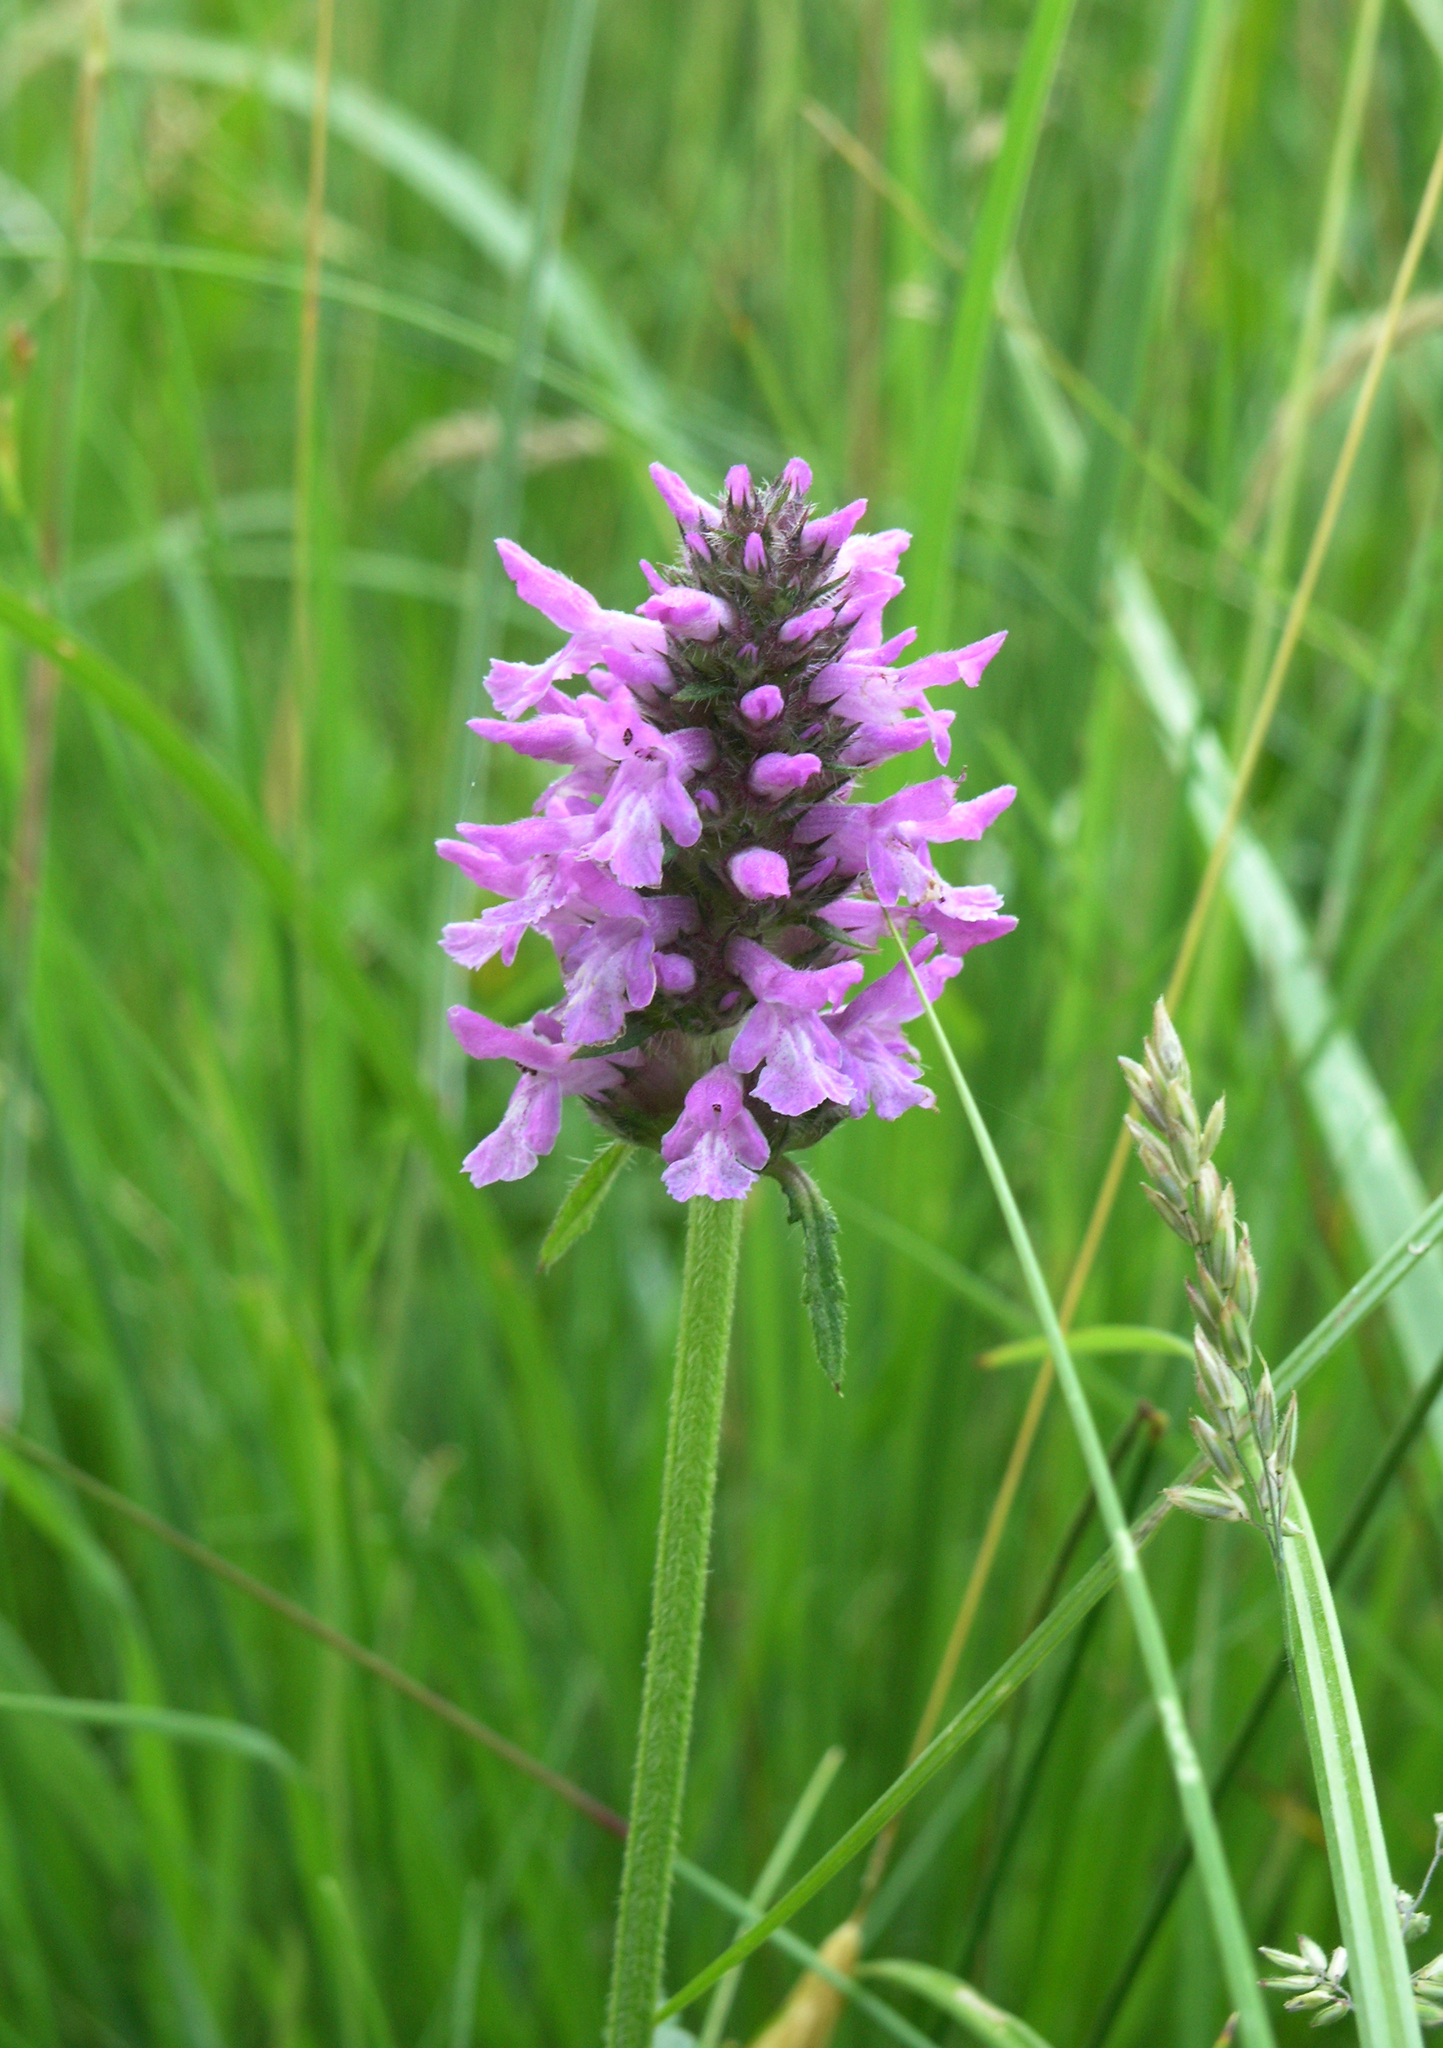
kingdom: Plantae
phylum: Tracheophyta
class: Magnoliopsida
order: Lamiales
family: Lamiaceae
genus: Betonica
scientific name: Betonica officinalis
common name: Bishop's-wort
